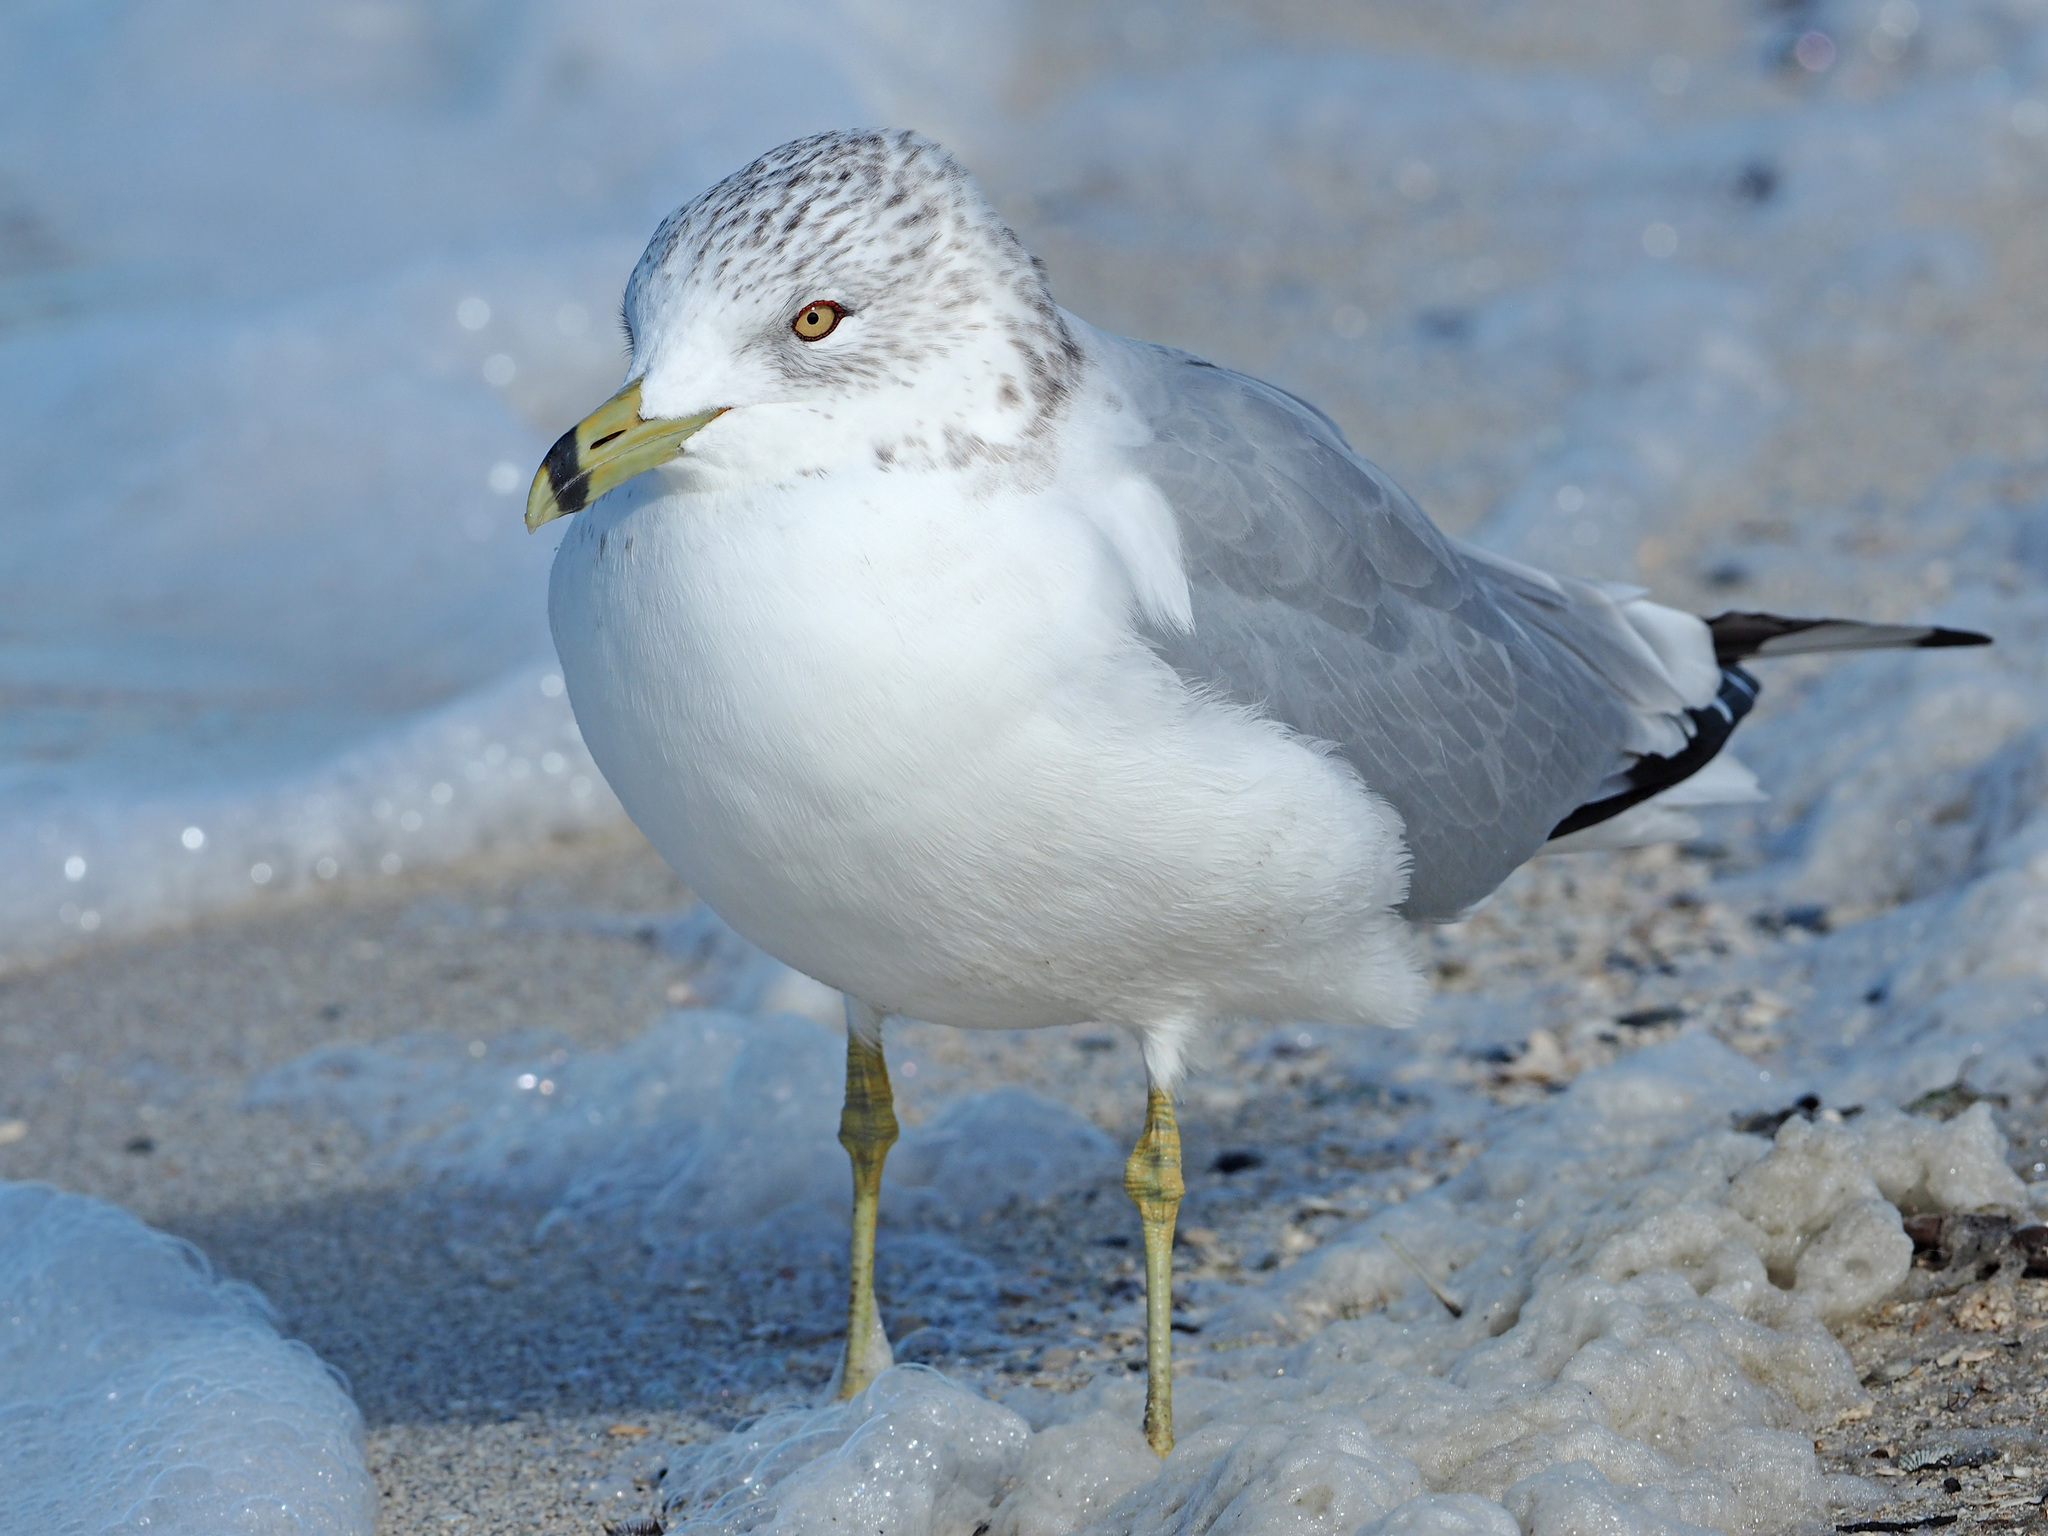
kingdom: Animalia
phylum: Chordata
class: Aves
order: Charadriiformes
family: Laridae
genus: Larus
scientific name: Larus delawarensis
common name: Ring-billed gull
